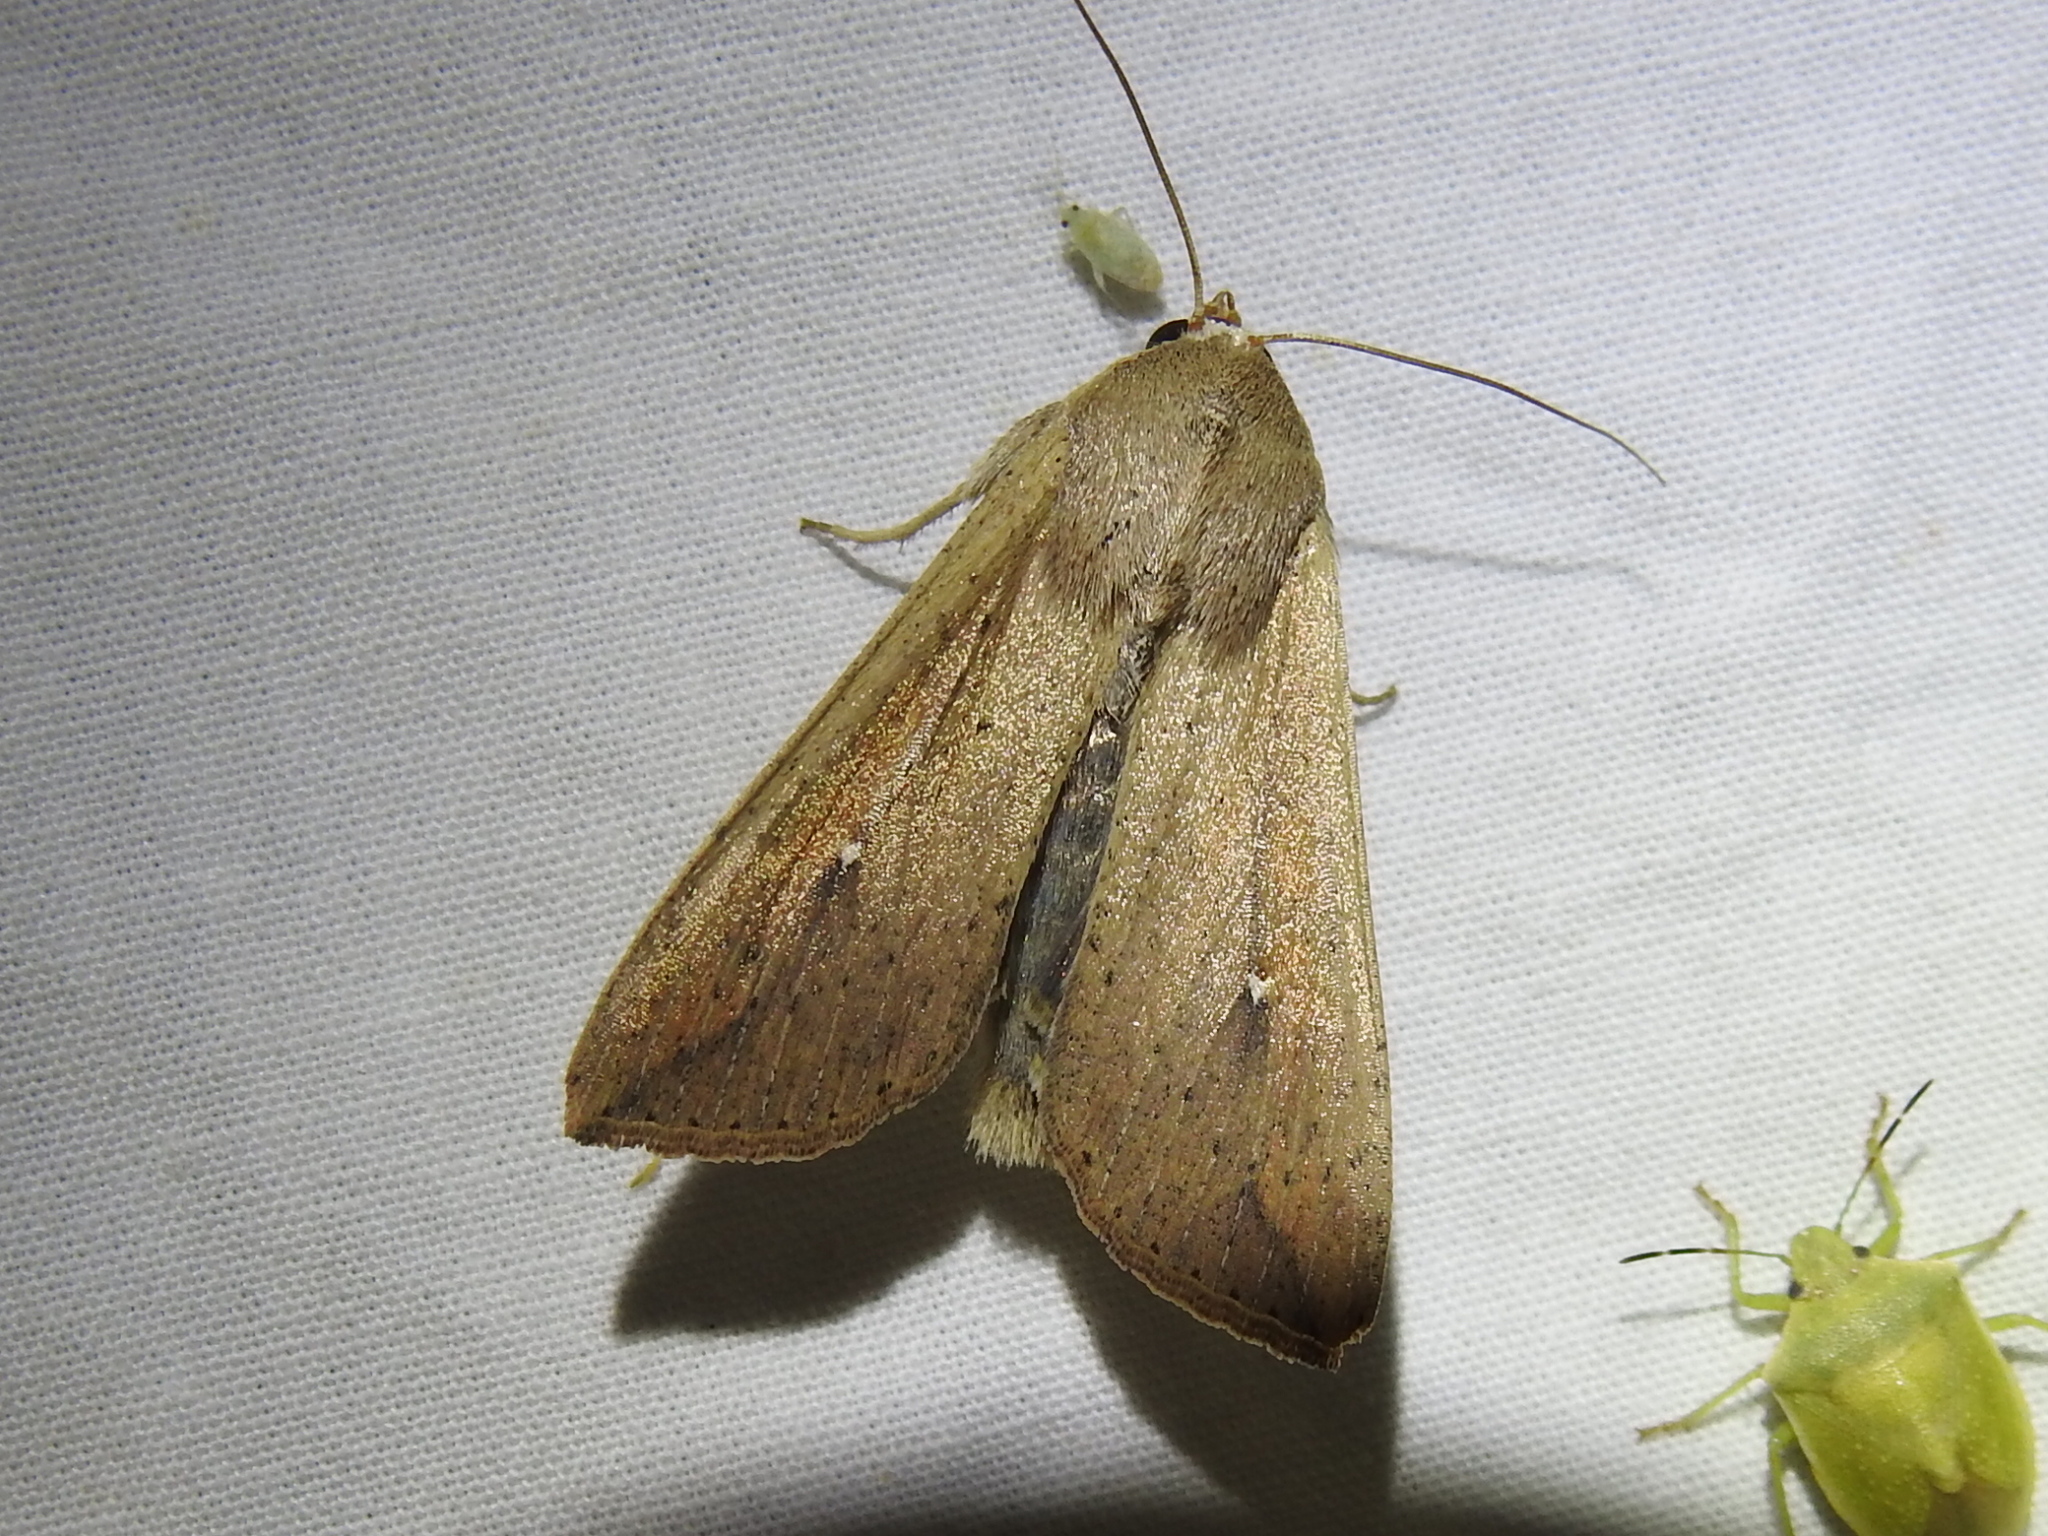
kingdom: Animalia
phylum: Arthropoda
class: Insecta
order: Lepidoptera
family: Noctuidae
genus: Mythimna
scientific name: Mythimna unipuncta
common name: White-speck
